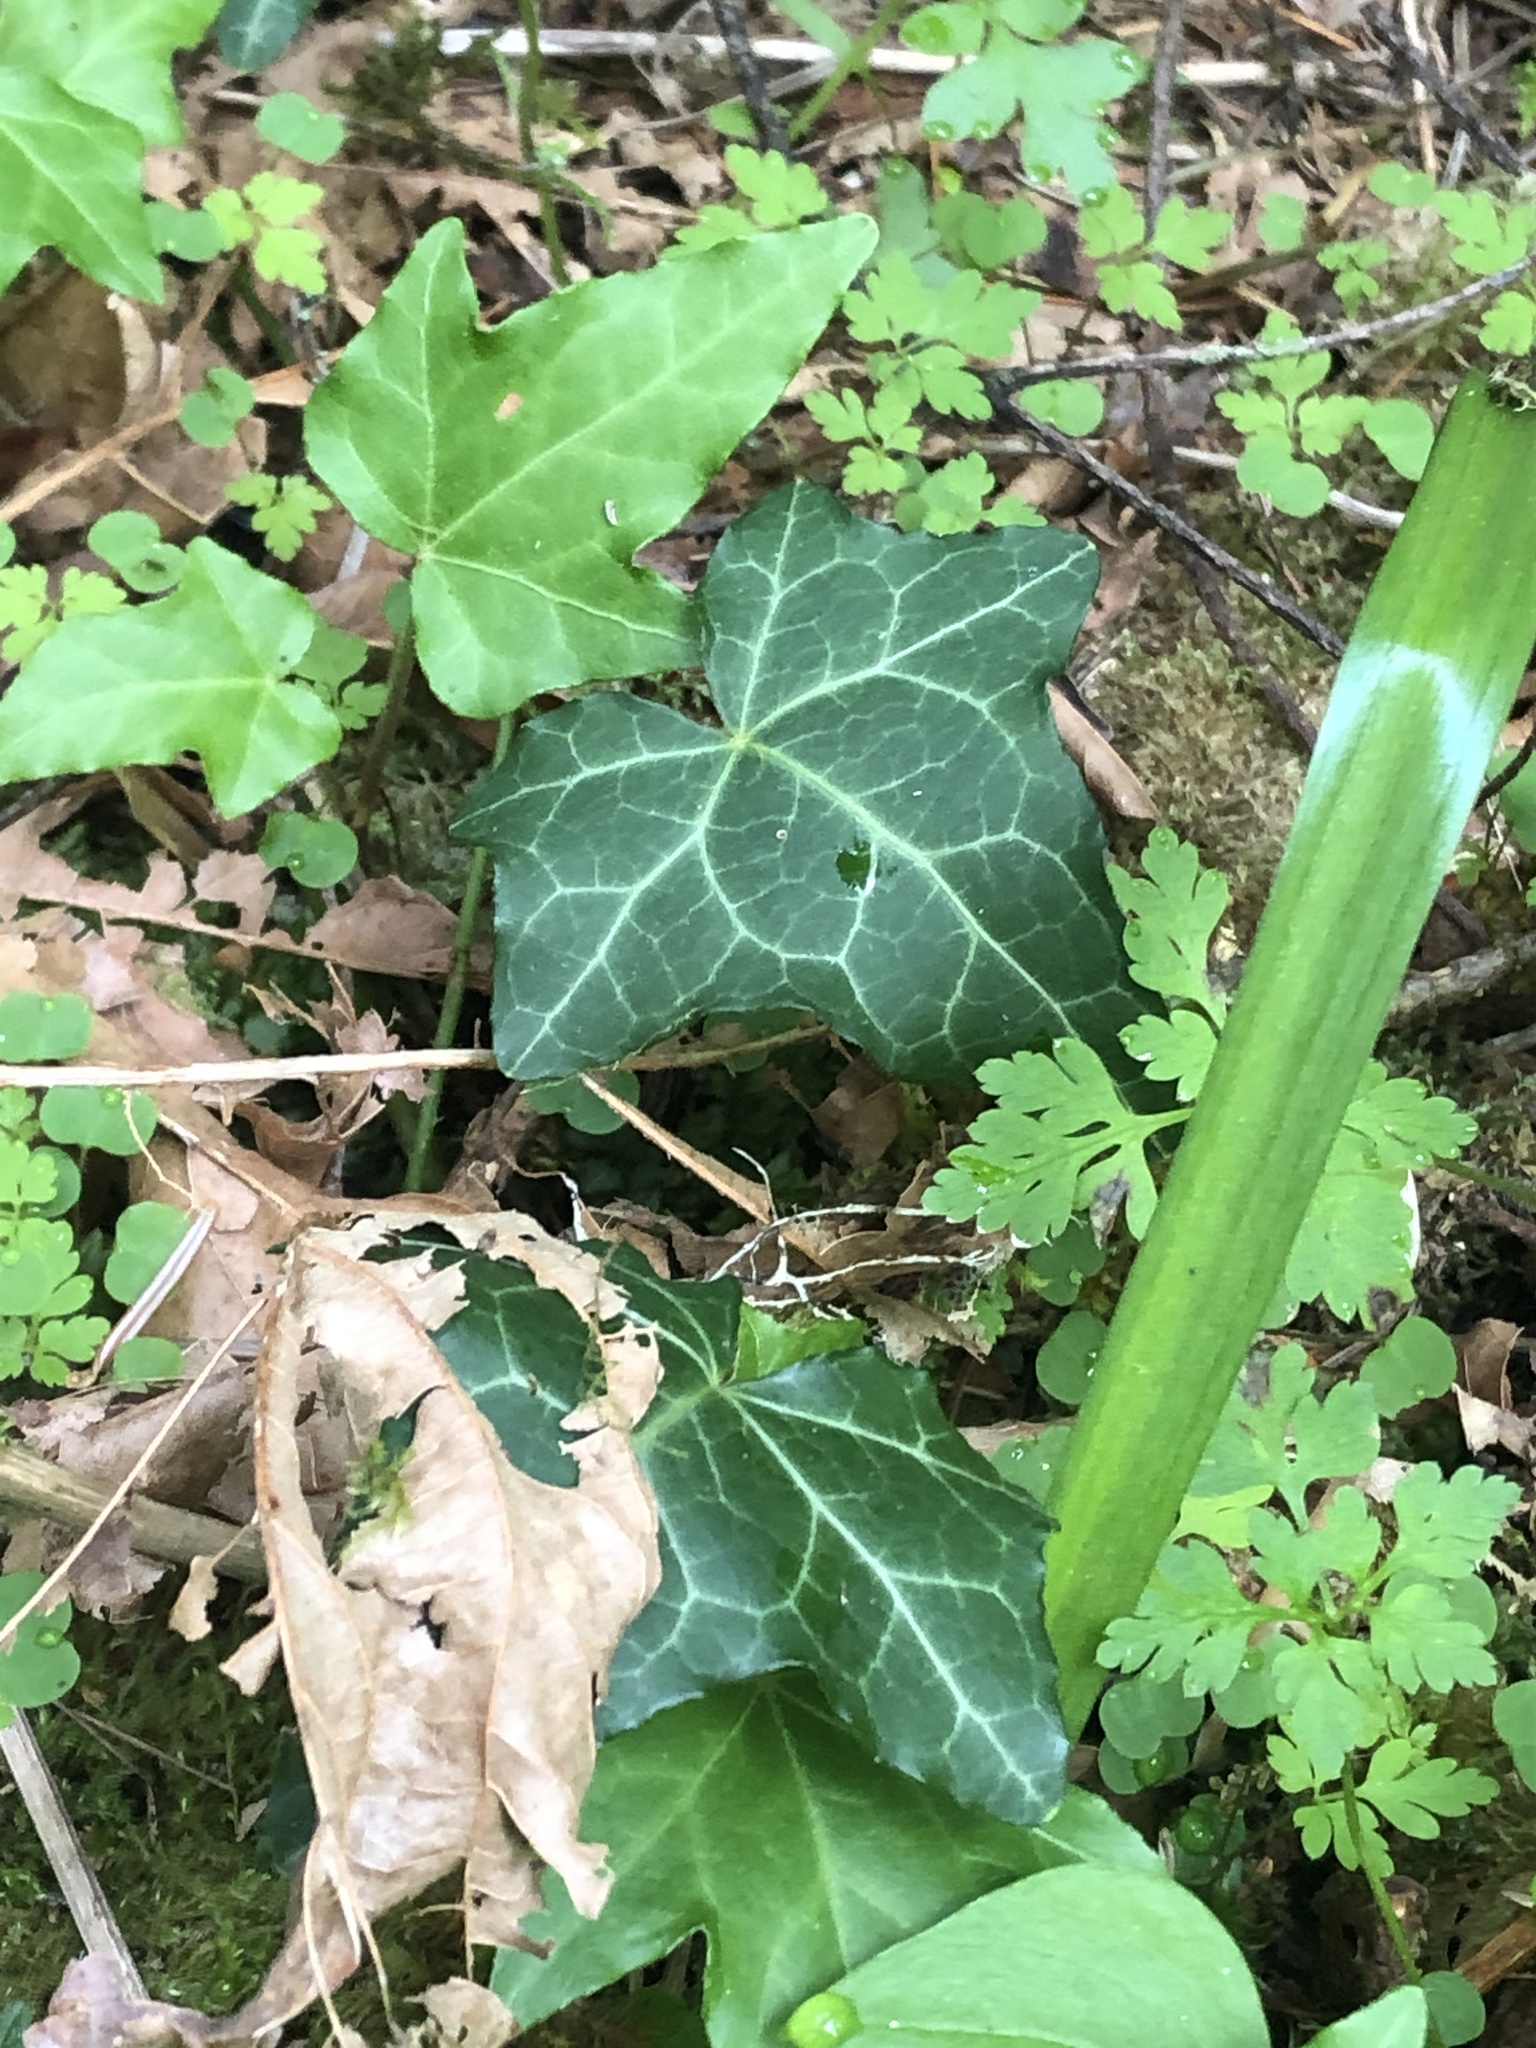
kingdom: Plantae
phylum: Tracheophyta
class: Magnoliopsida
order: Apiales
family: Araliaceae
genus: Hedera
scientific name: Hedera helix
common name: Ivy
